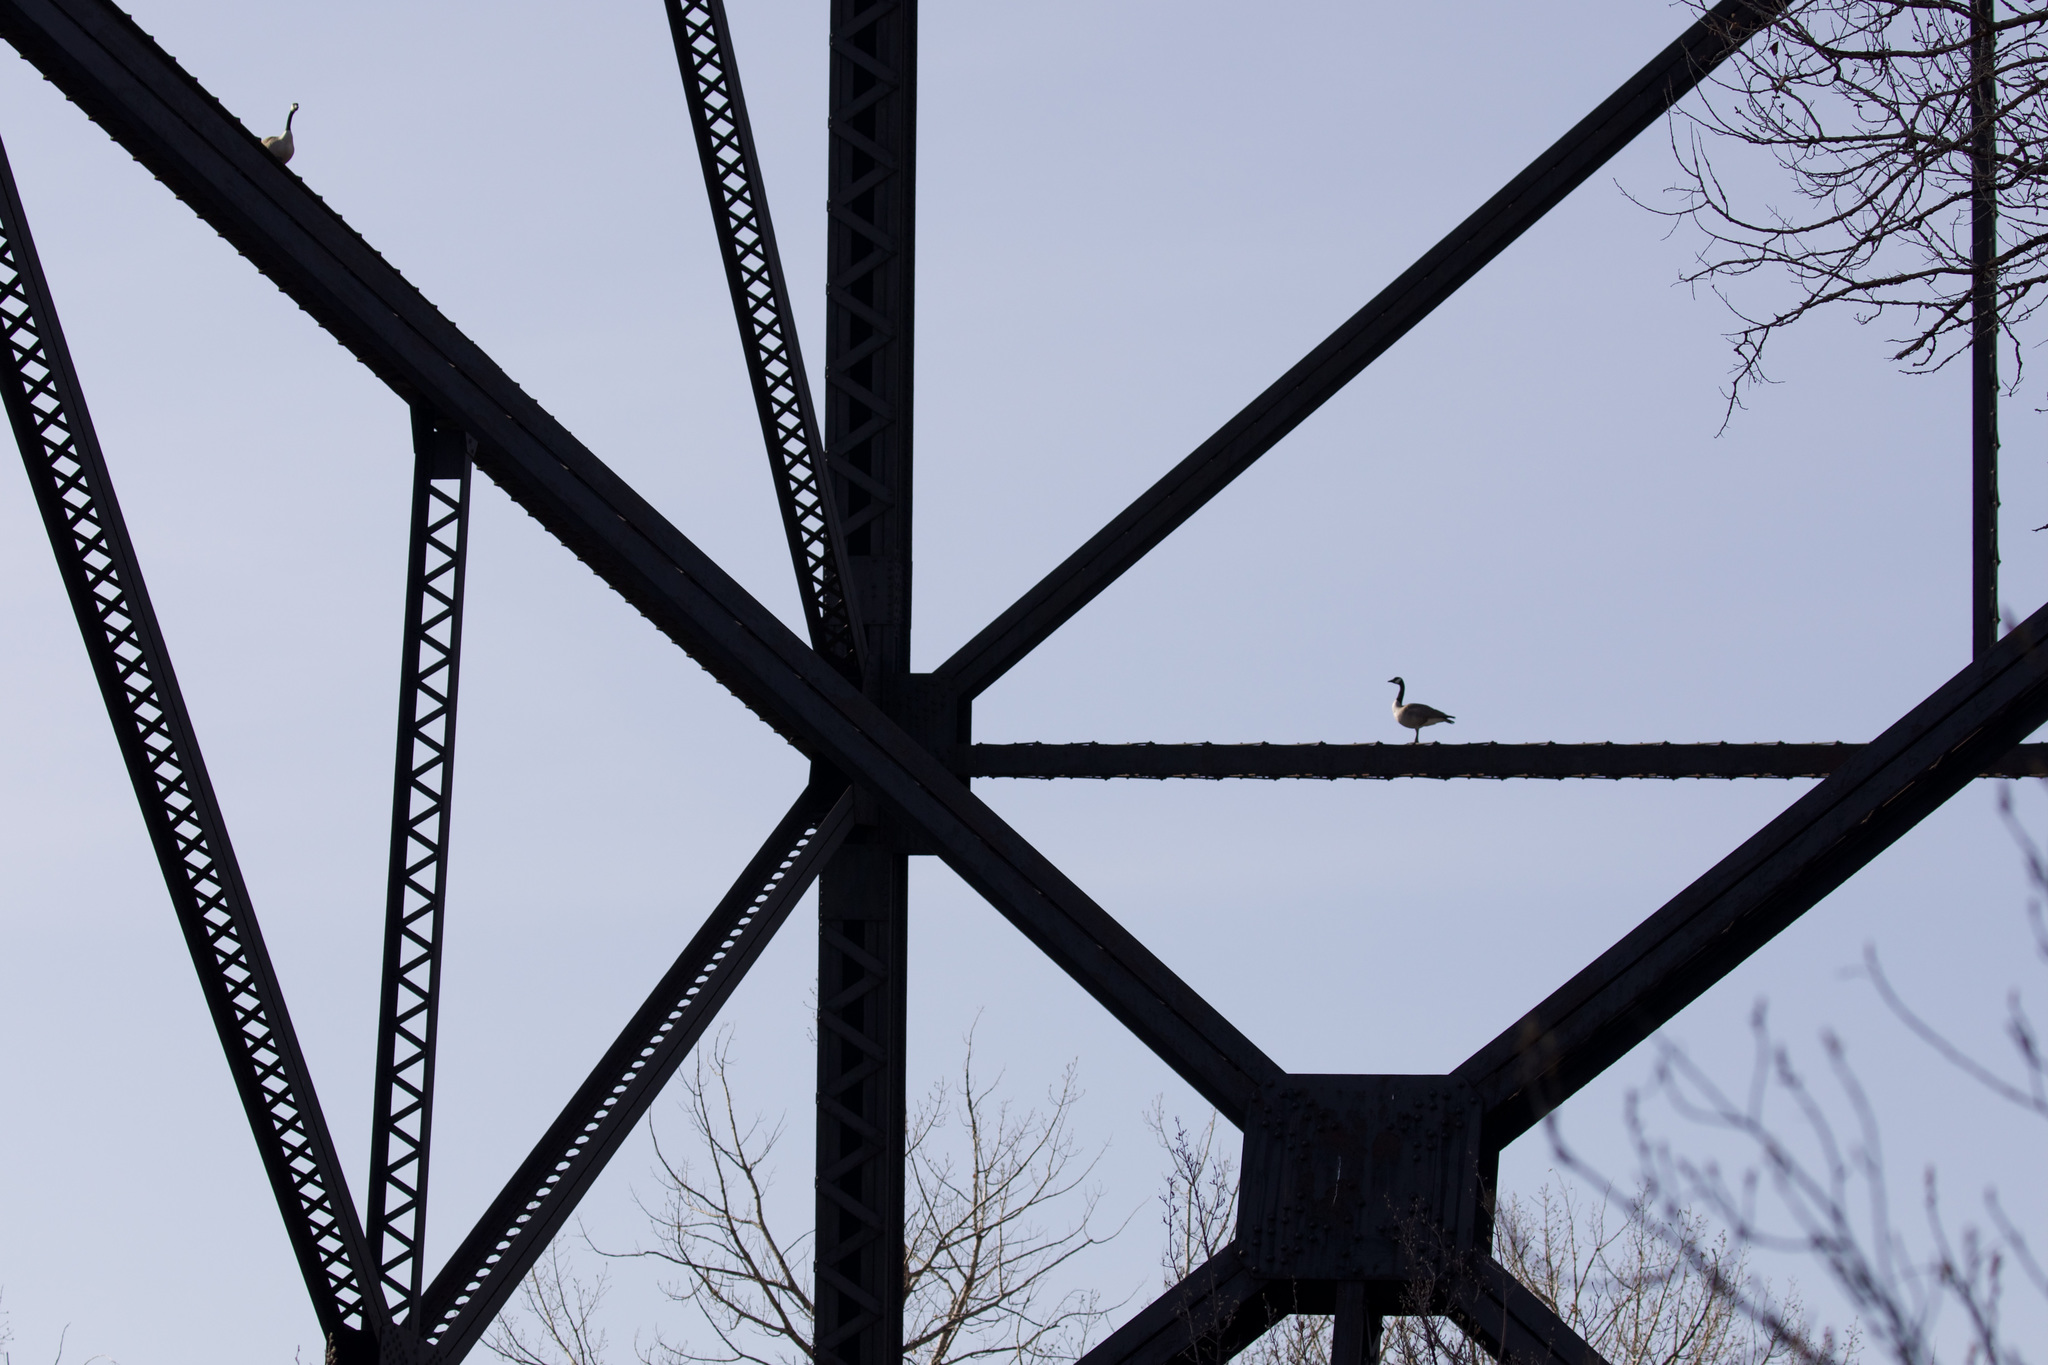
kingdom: Animalia
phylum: Chordata
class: Aves
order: Anseriformes
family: Anatidae
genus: Branta
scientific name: Branta canadensis
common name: Canada goose
